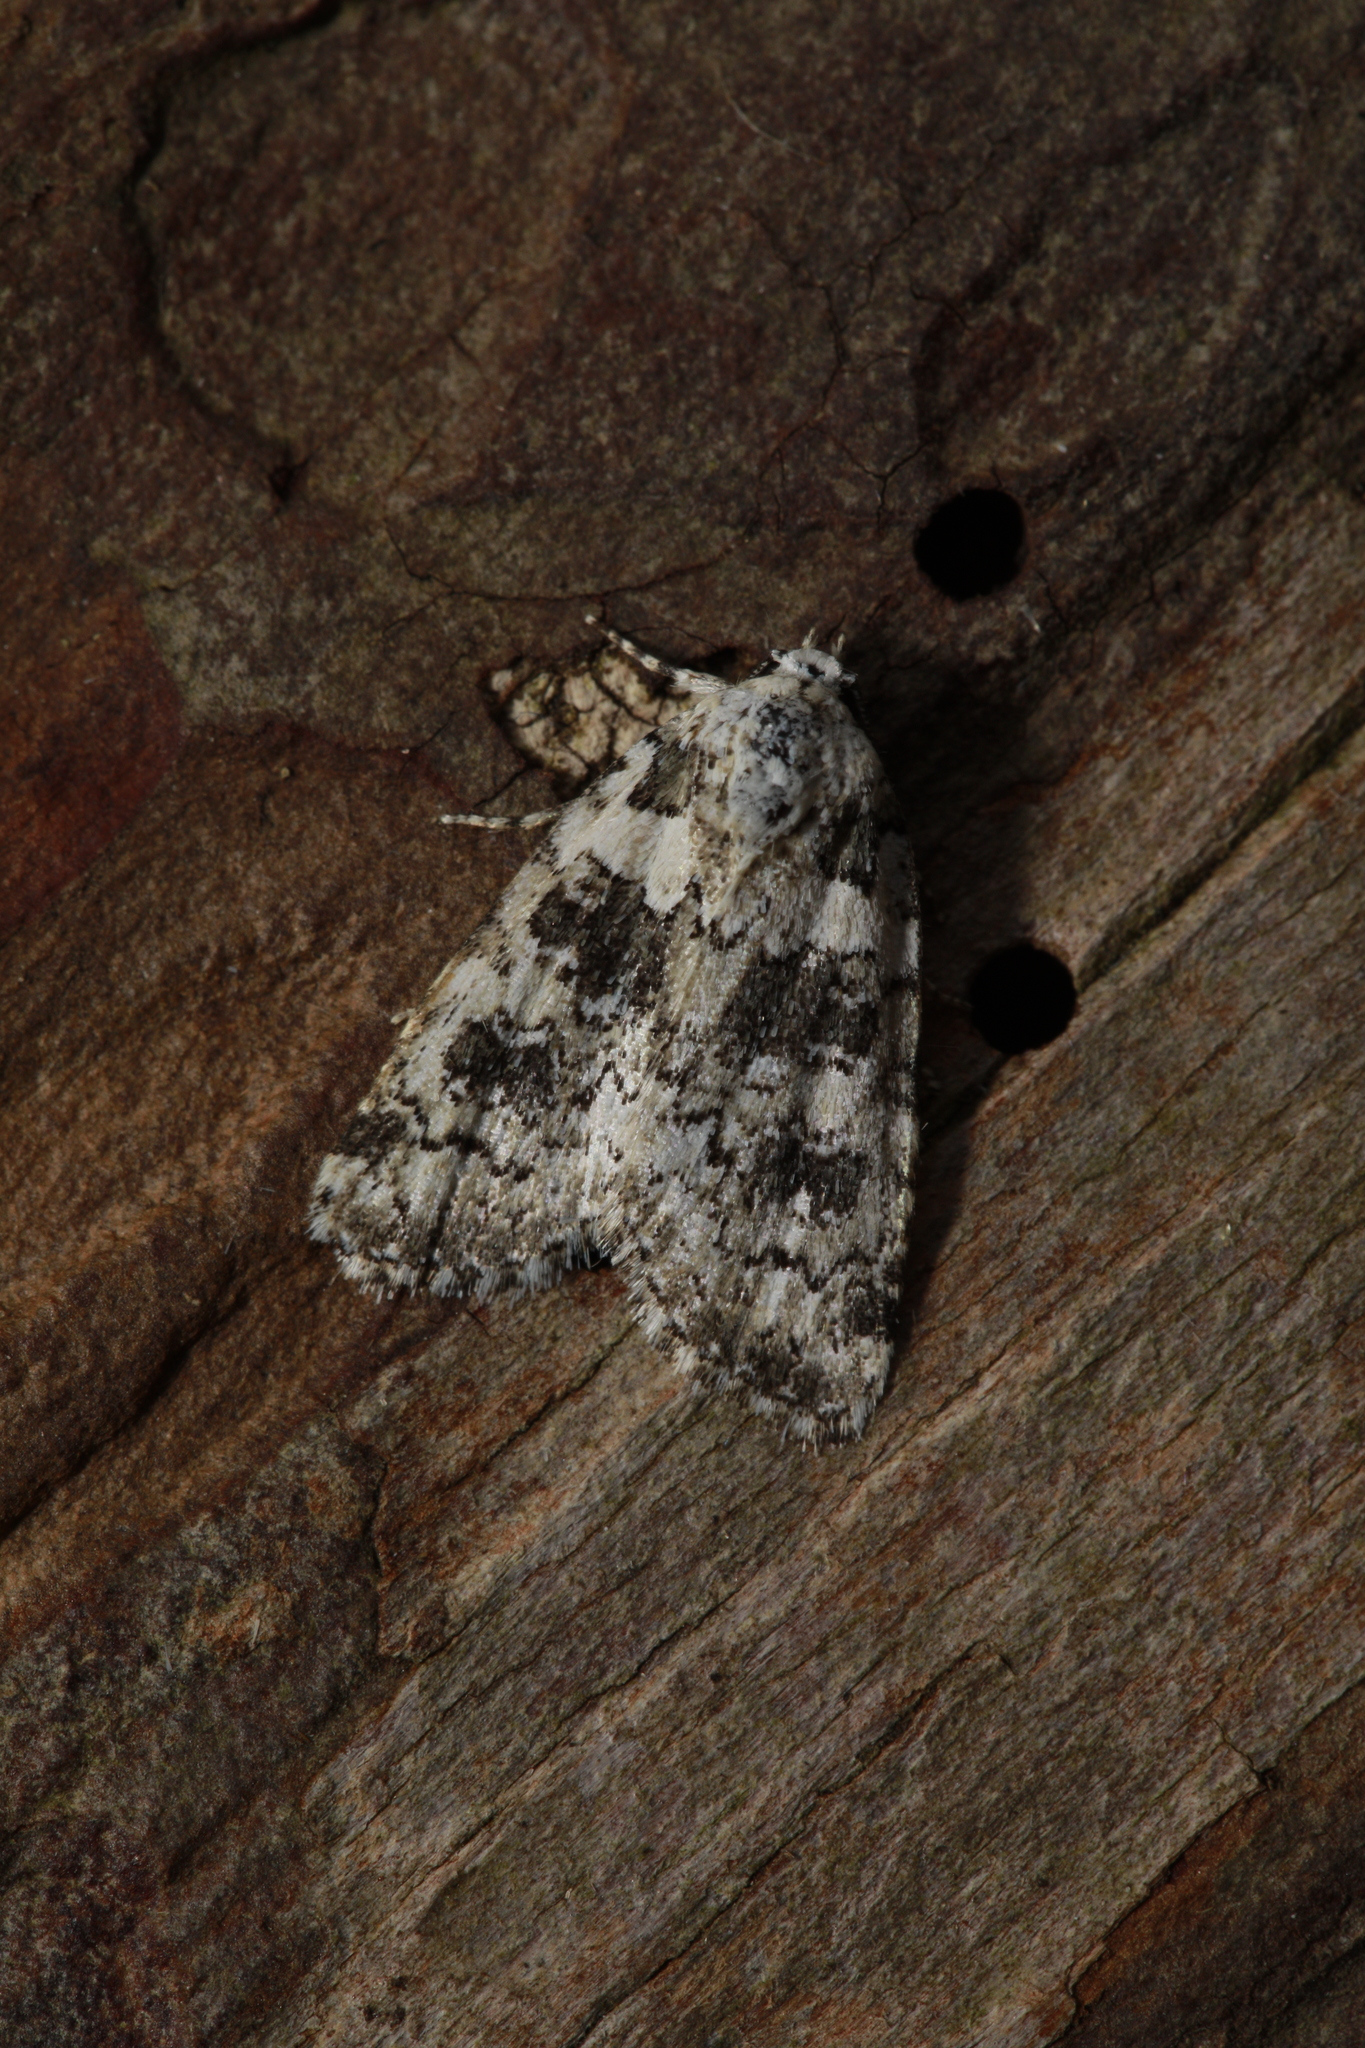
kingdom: Animalia
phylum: Arthropoda
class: Insecta
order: Lepidoptera
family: Noctuidae
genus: Bryophila
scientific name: Bryophila domestica
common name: Marbled beauty
